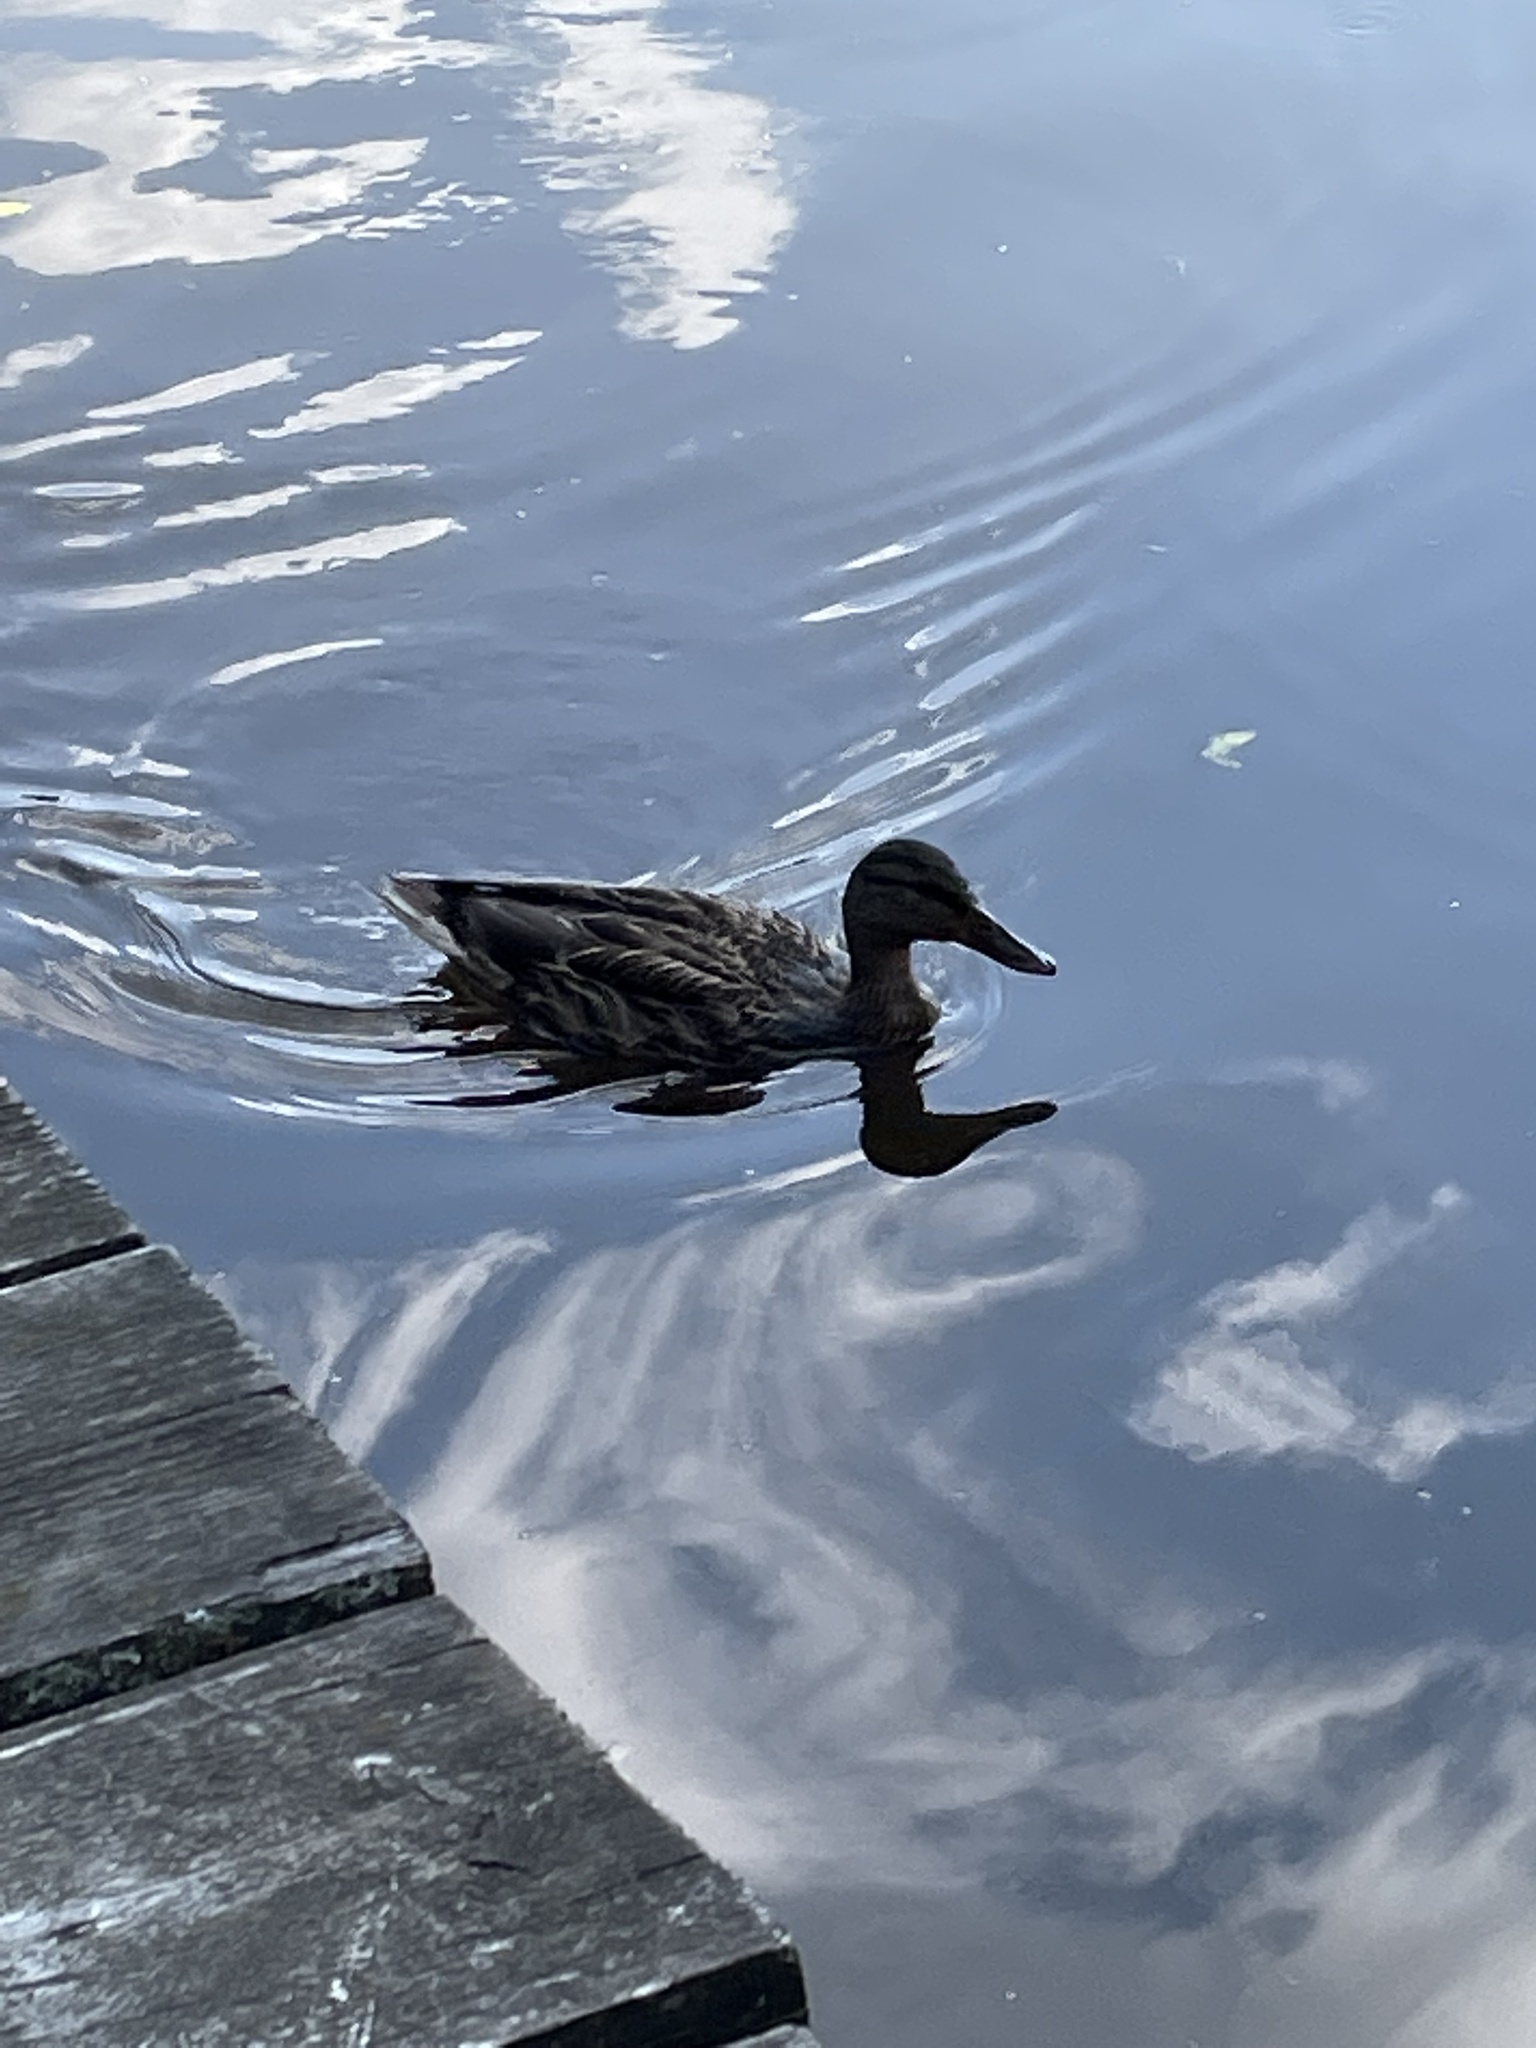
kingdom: Animalia
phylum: Chordata
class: Aves
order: Anseriformes
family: Anatidae
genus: Anas
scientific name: Anas platyrhynchos
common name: Mallard
